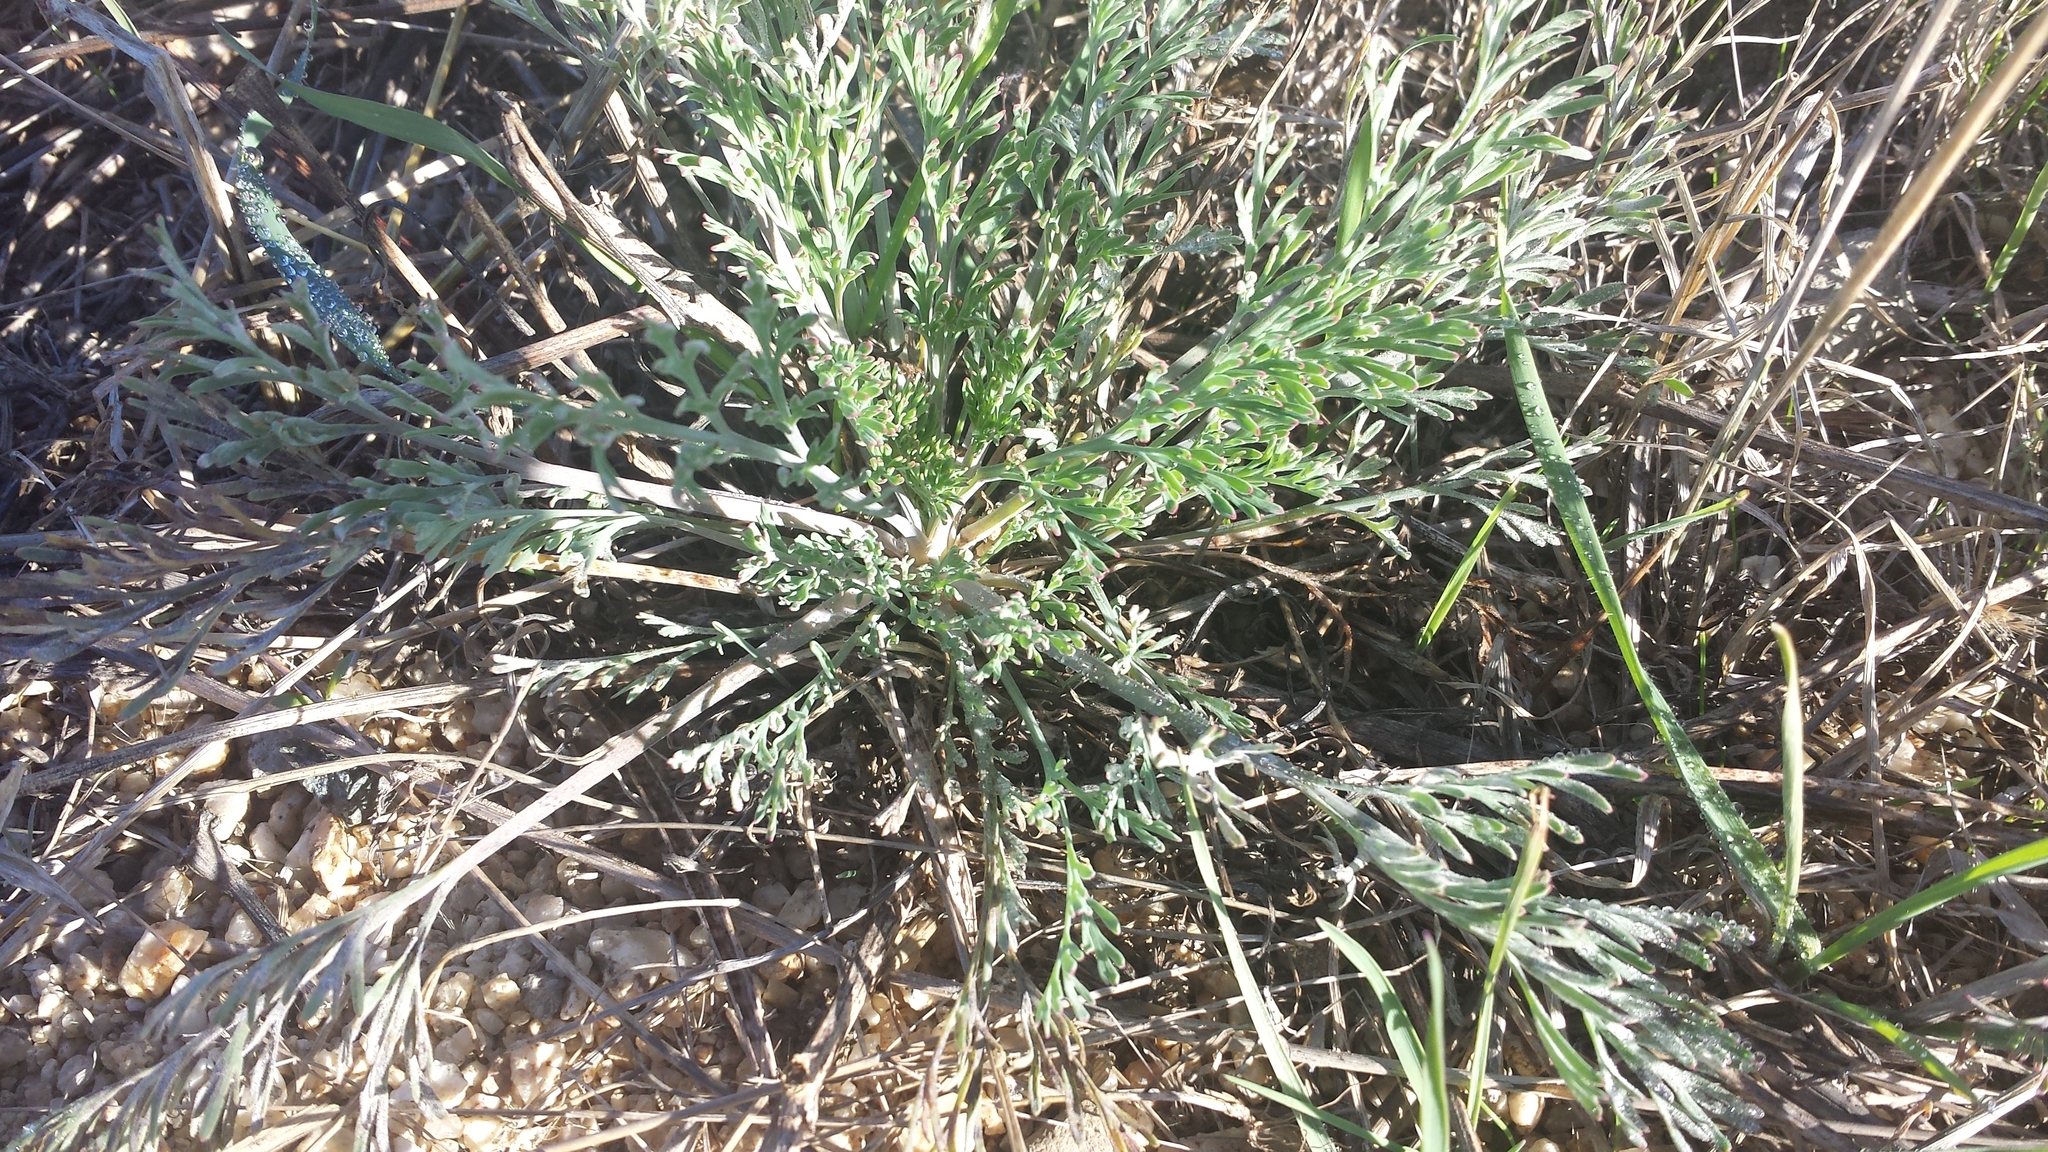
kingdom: Plantae
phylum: Tracheophyta
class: Magnoliopsida
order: Ranunculales
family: Papaveraceae
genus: Eschscholzia
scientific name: Eschscholzia californica
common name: California poppy
